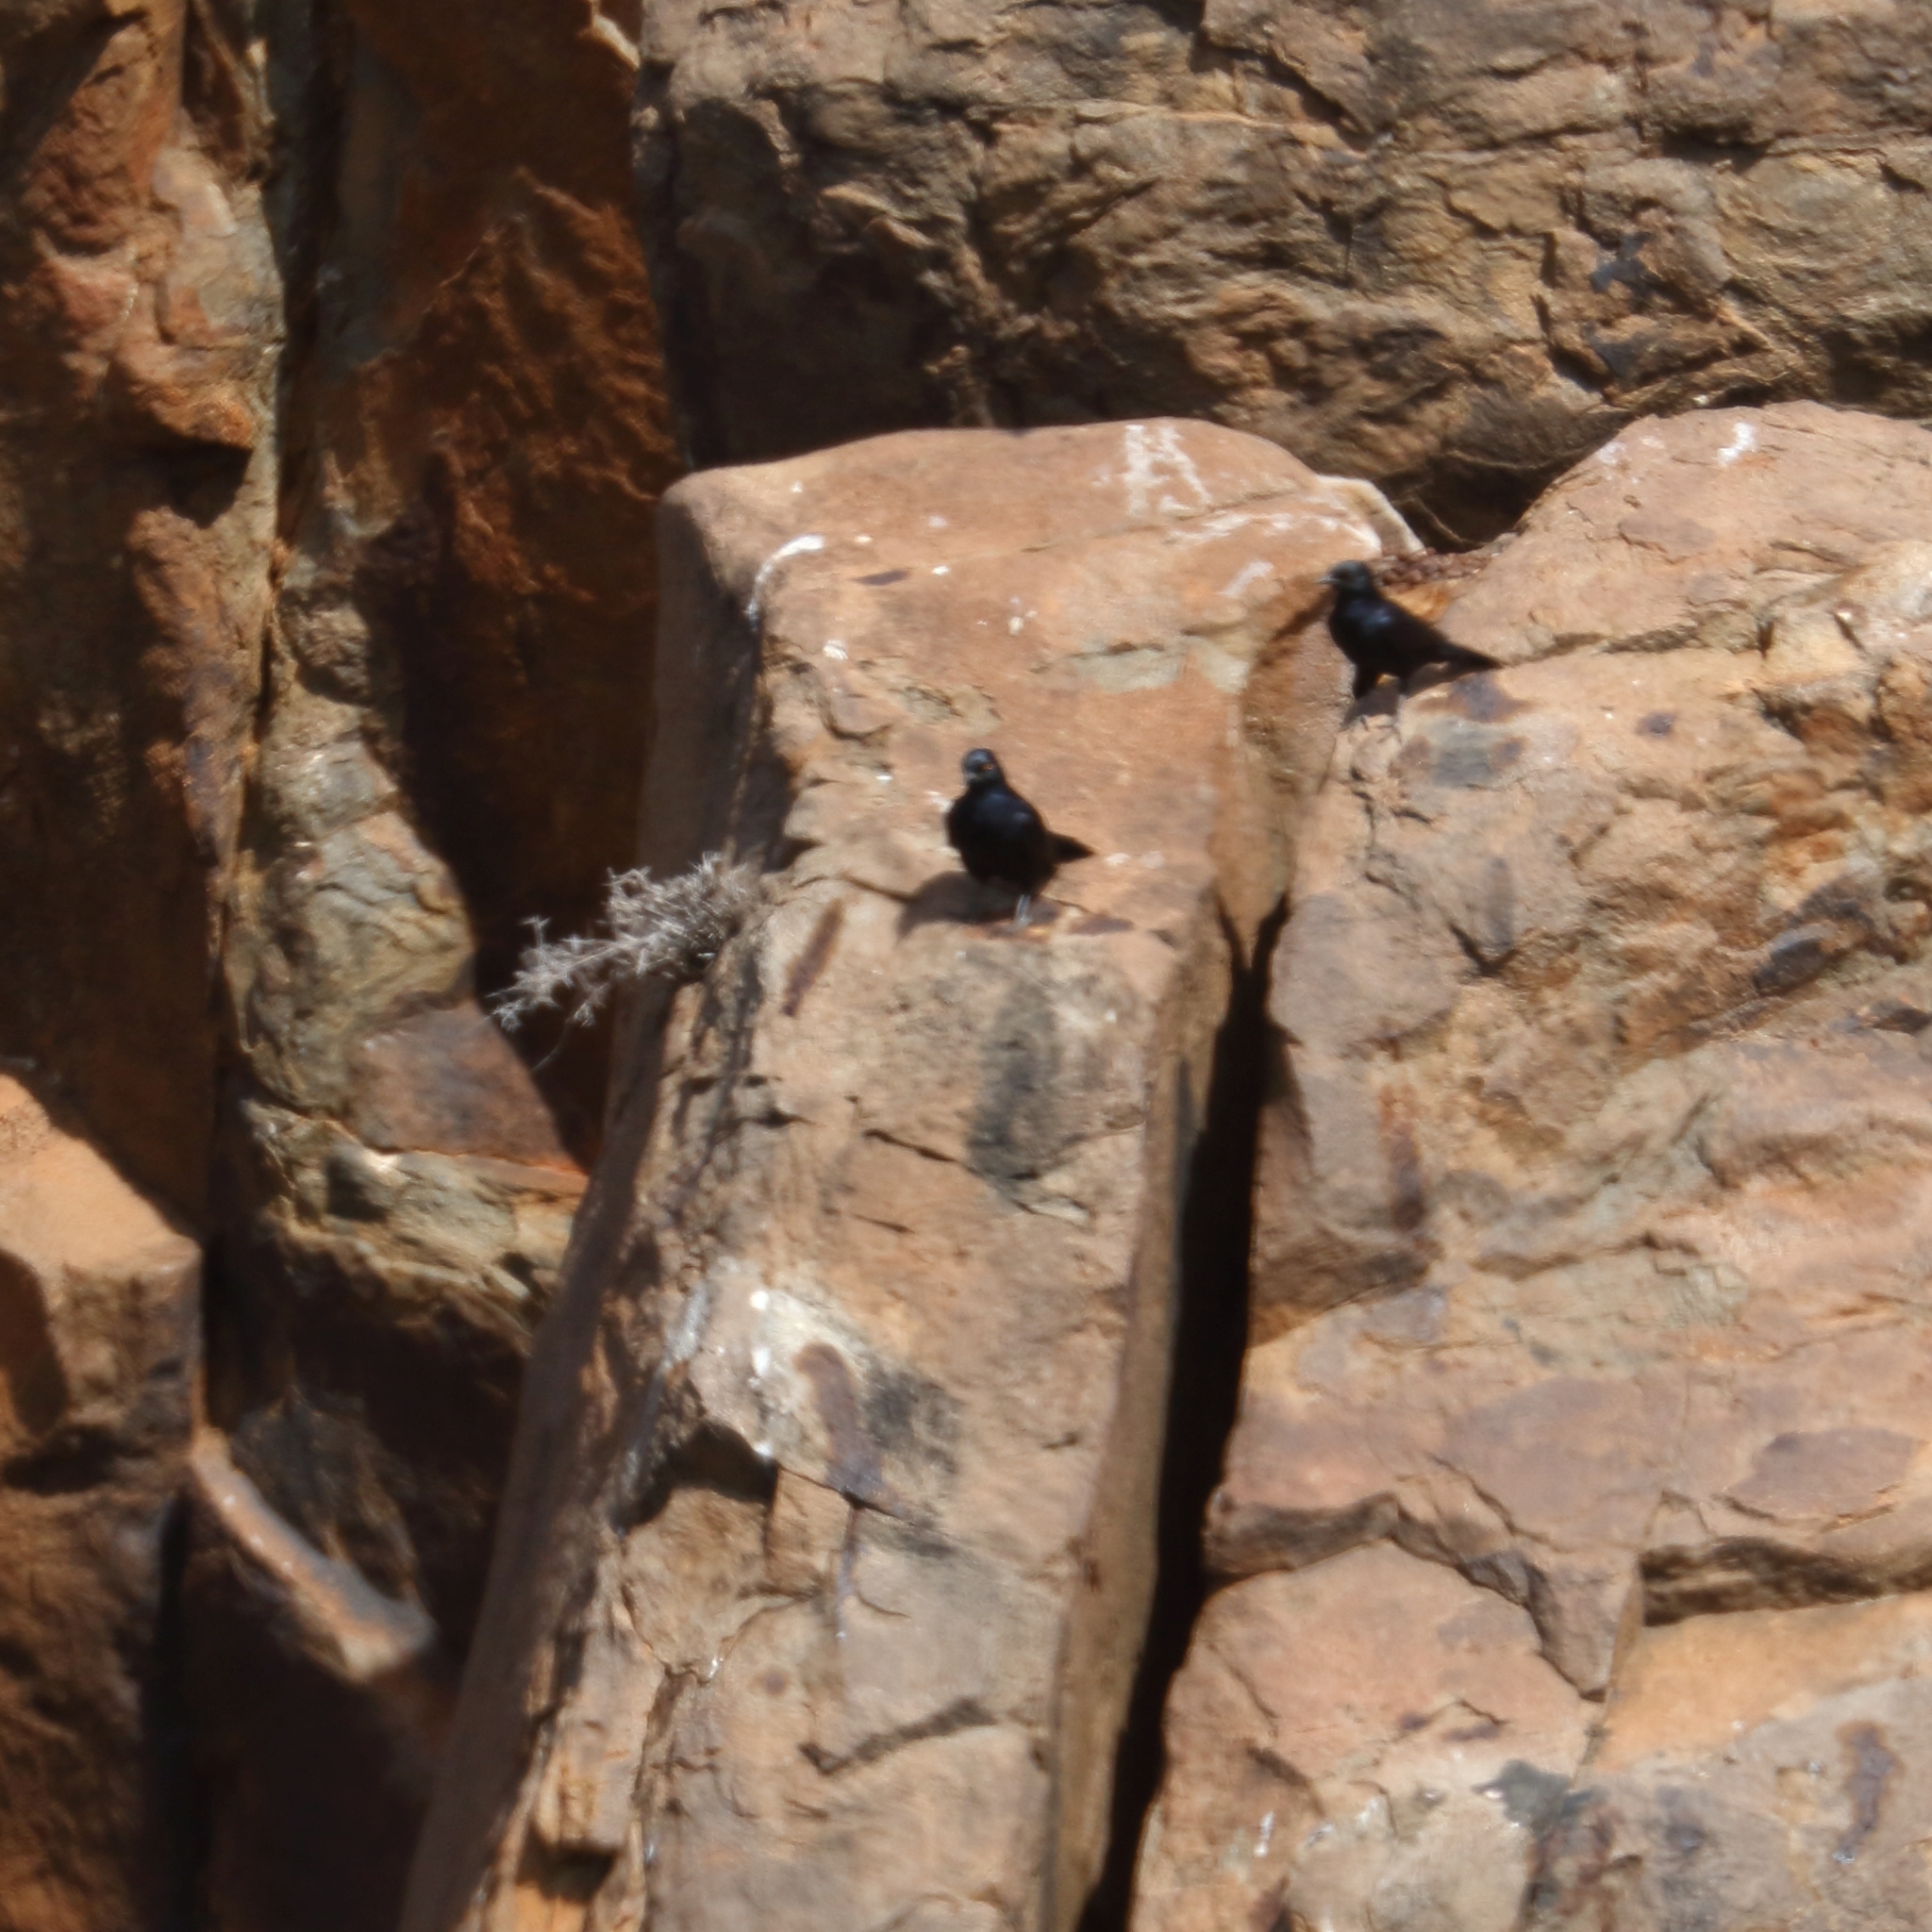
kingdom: Animalia
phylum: Chordata
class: Aves
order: Passeriformes
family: Sturnidae
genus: Onychognathus
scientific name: Onychognathus nabouroup
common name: Pale-winged starling
